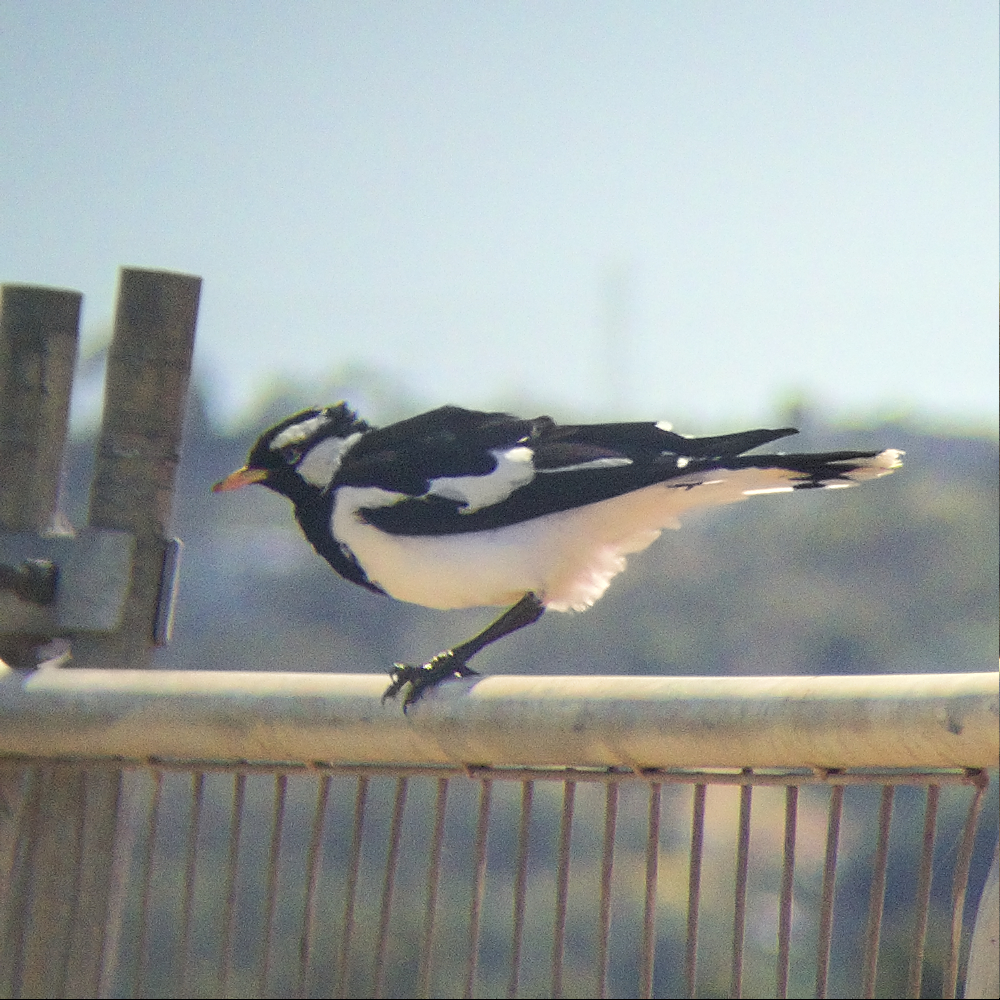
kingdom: Animalia
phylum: Chordata
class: Aves
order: Passeriformes
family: Monarchidae
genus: Grallina
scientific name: Grallina cyanoleuca
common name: Magpie-lark
